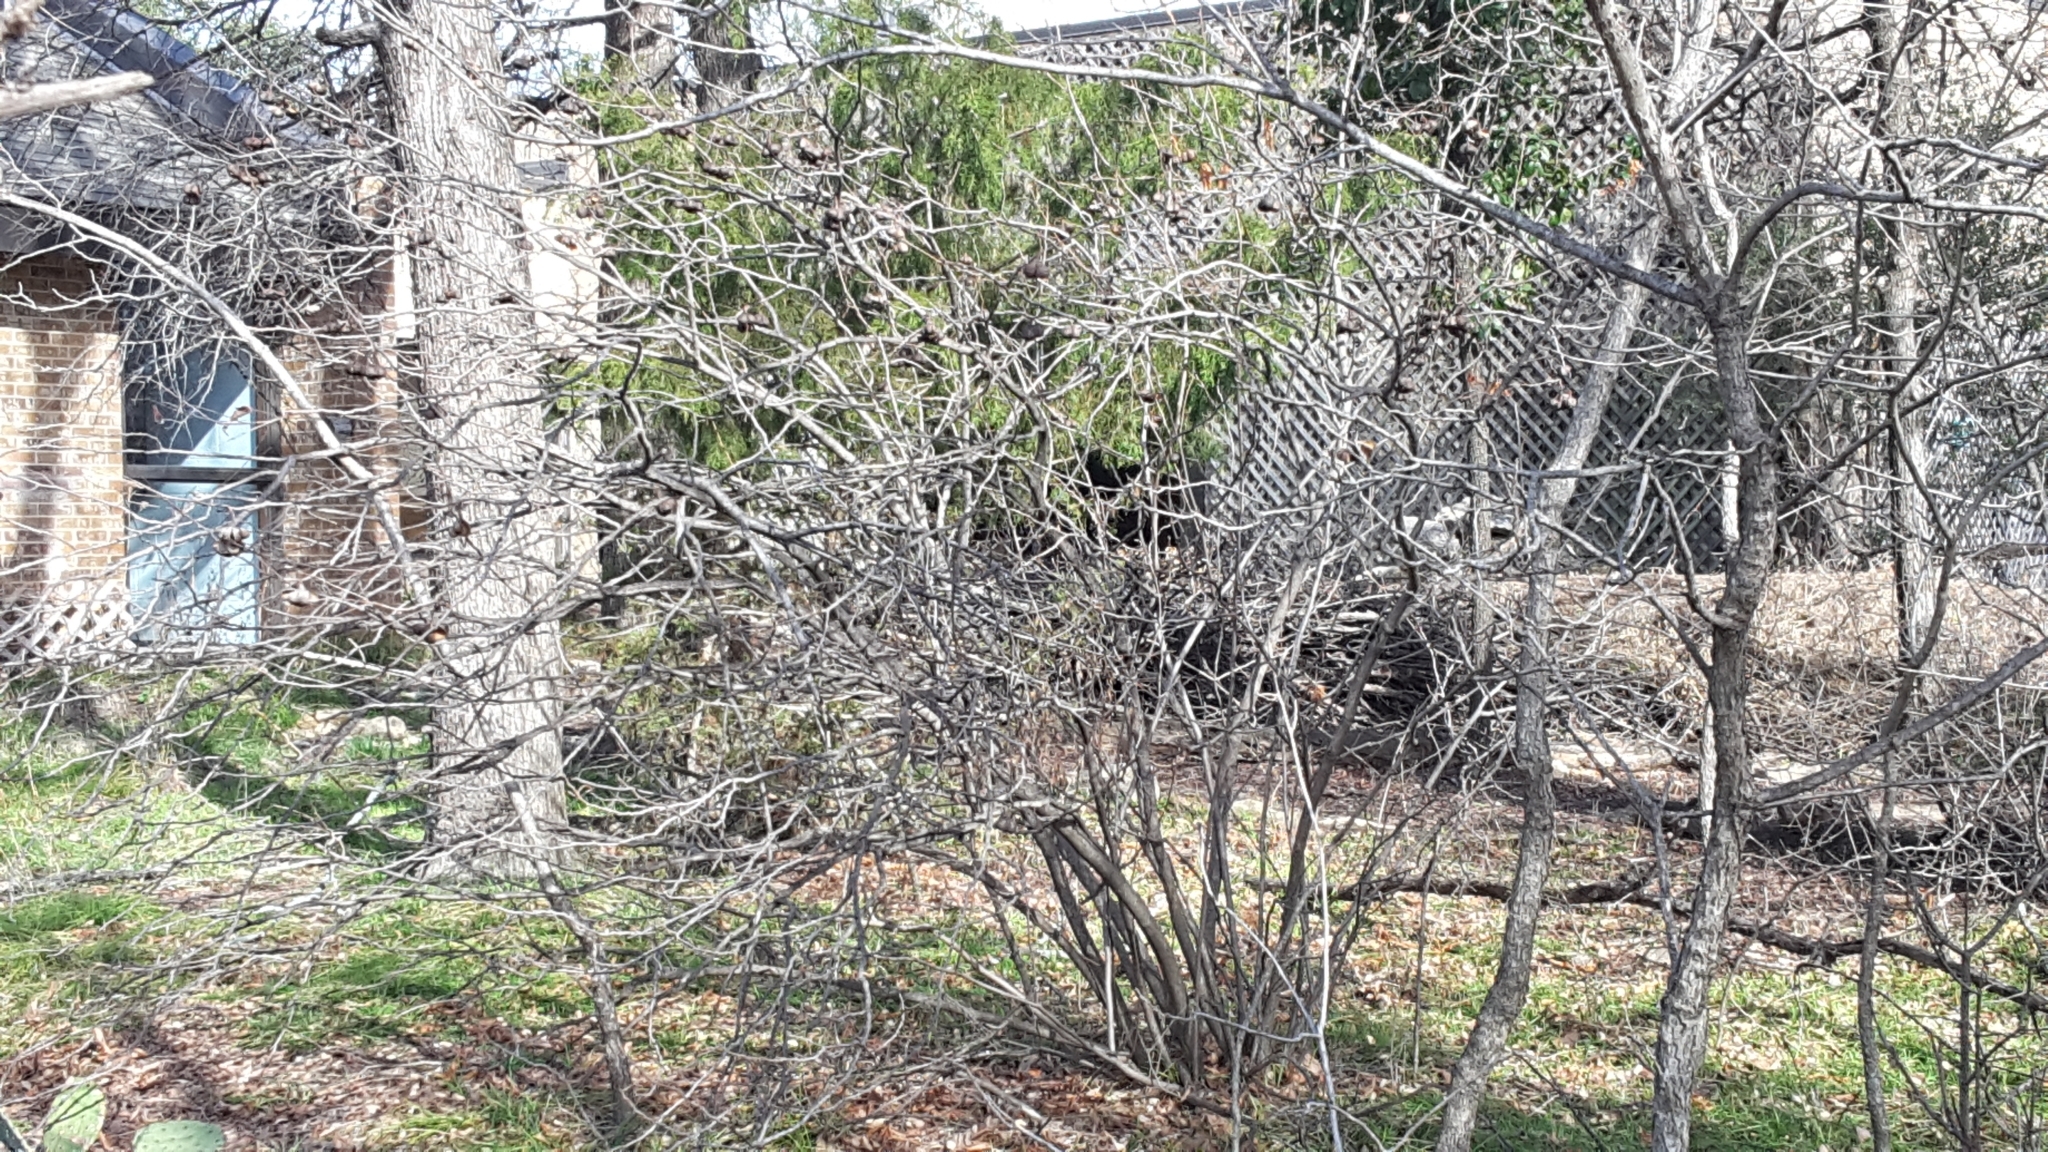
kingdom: Plantae
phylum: Tracheophyta
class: Magnoliopsida
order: Sapindales
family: Sapindaceae
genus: Ungnadia
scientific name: Ungnadia speciosa
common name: Texas-buckeye
